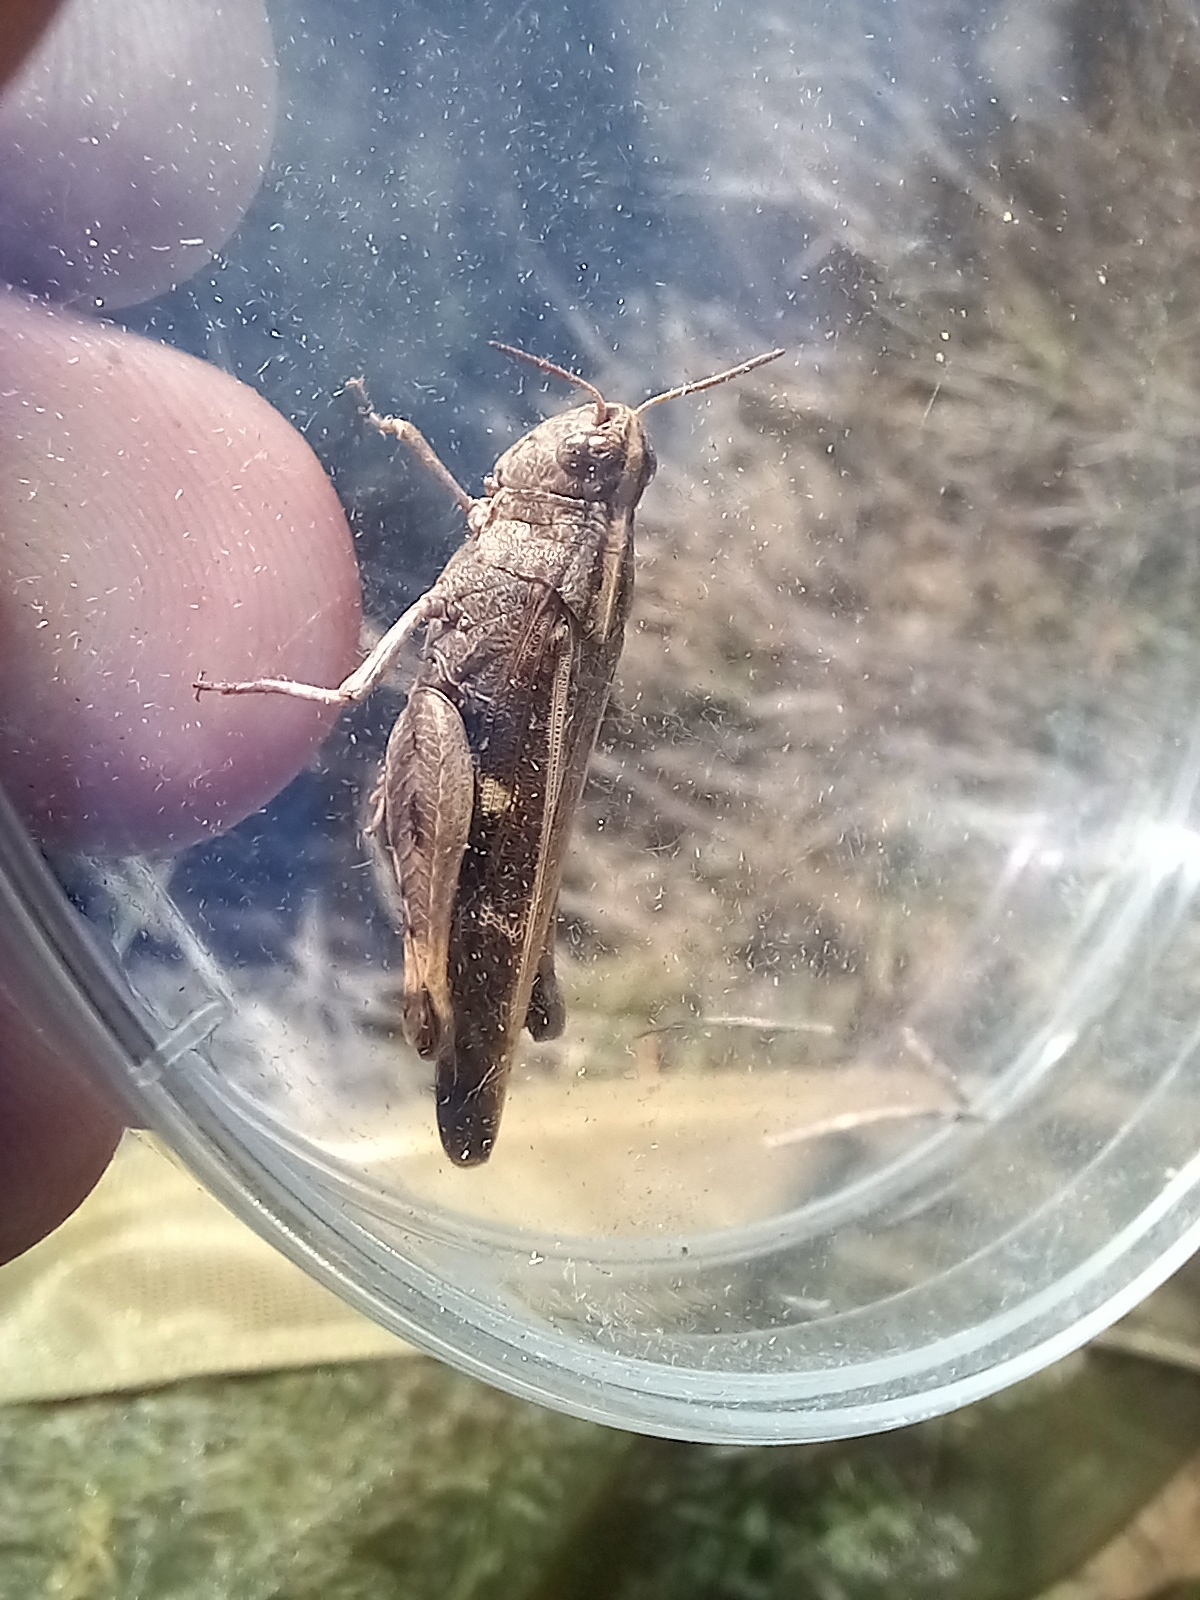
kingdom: Animalia
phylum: Arthropoda
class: Insecta
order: Orthoptera
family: Acrididae
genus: Aiolopus
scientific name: Aiolopus strepens
